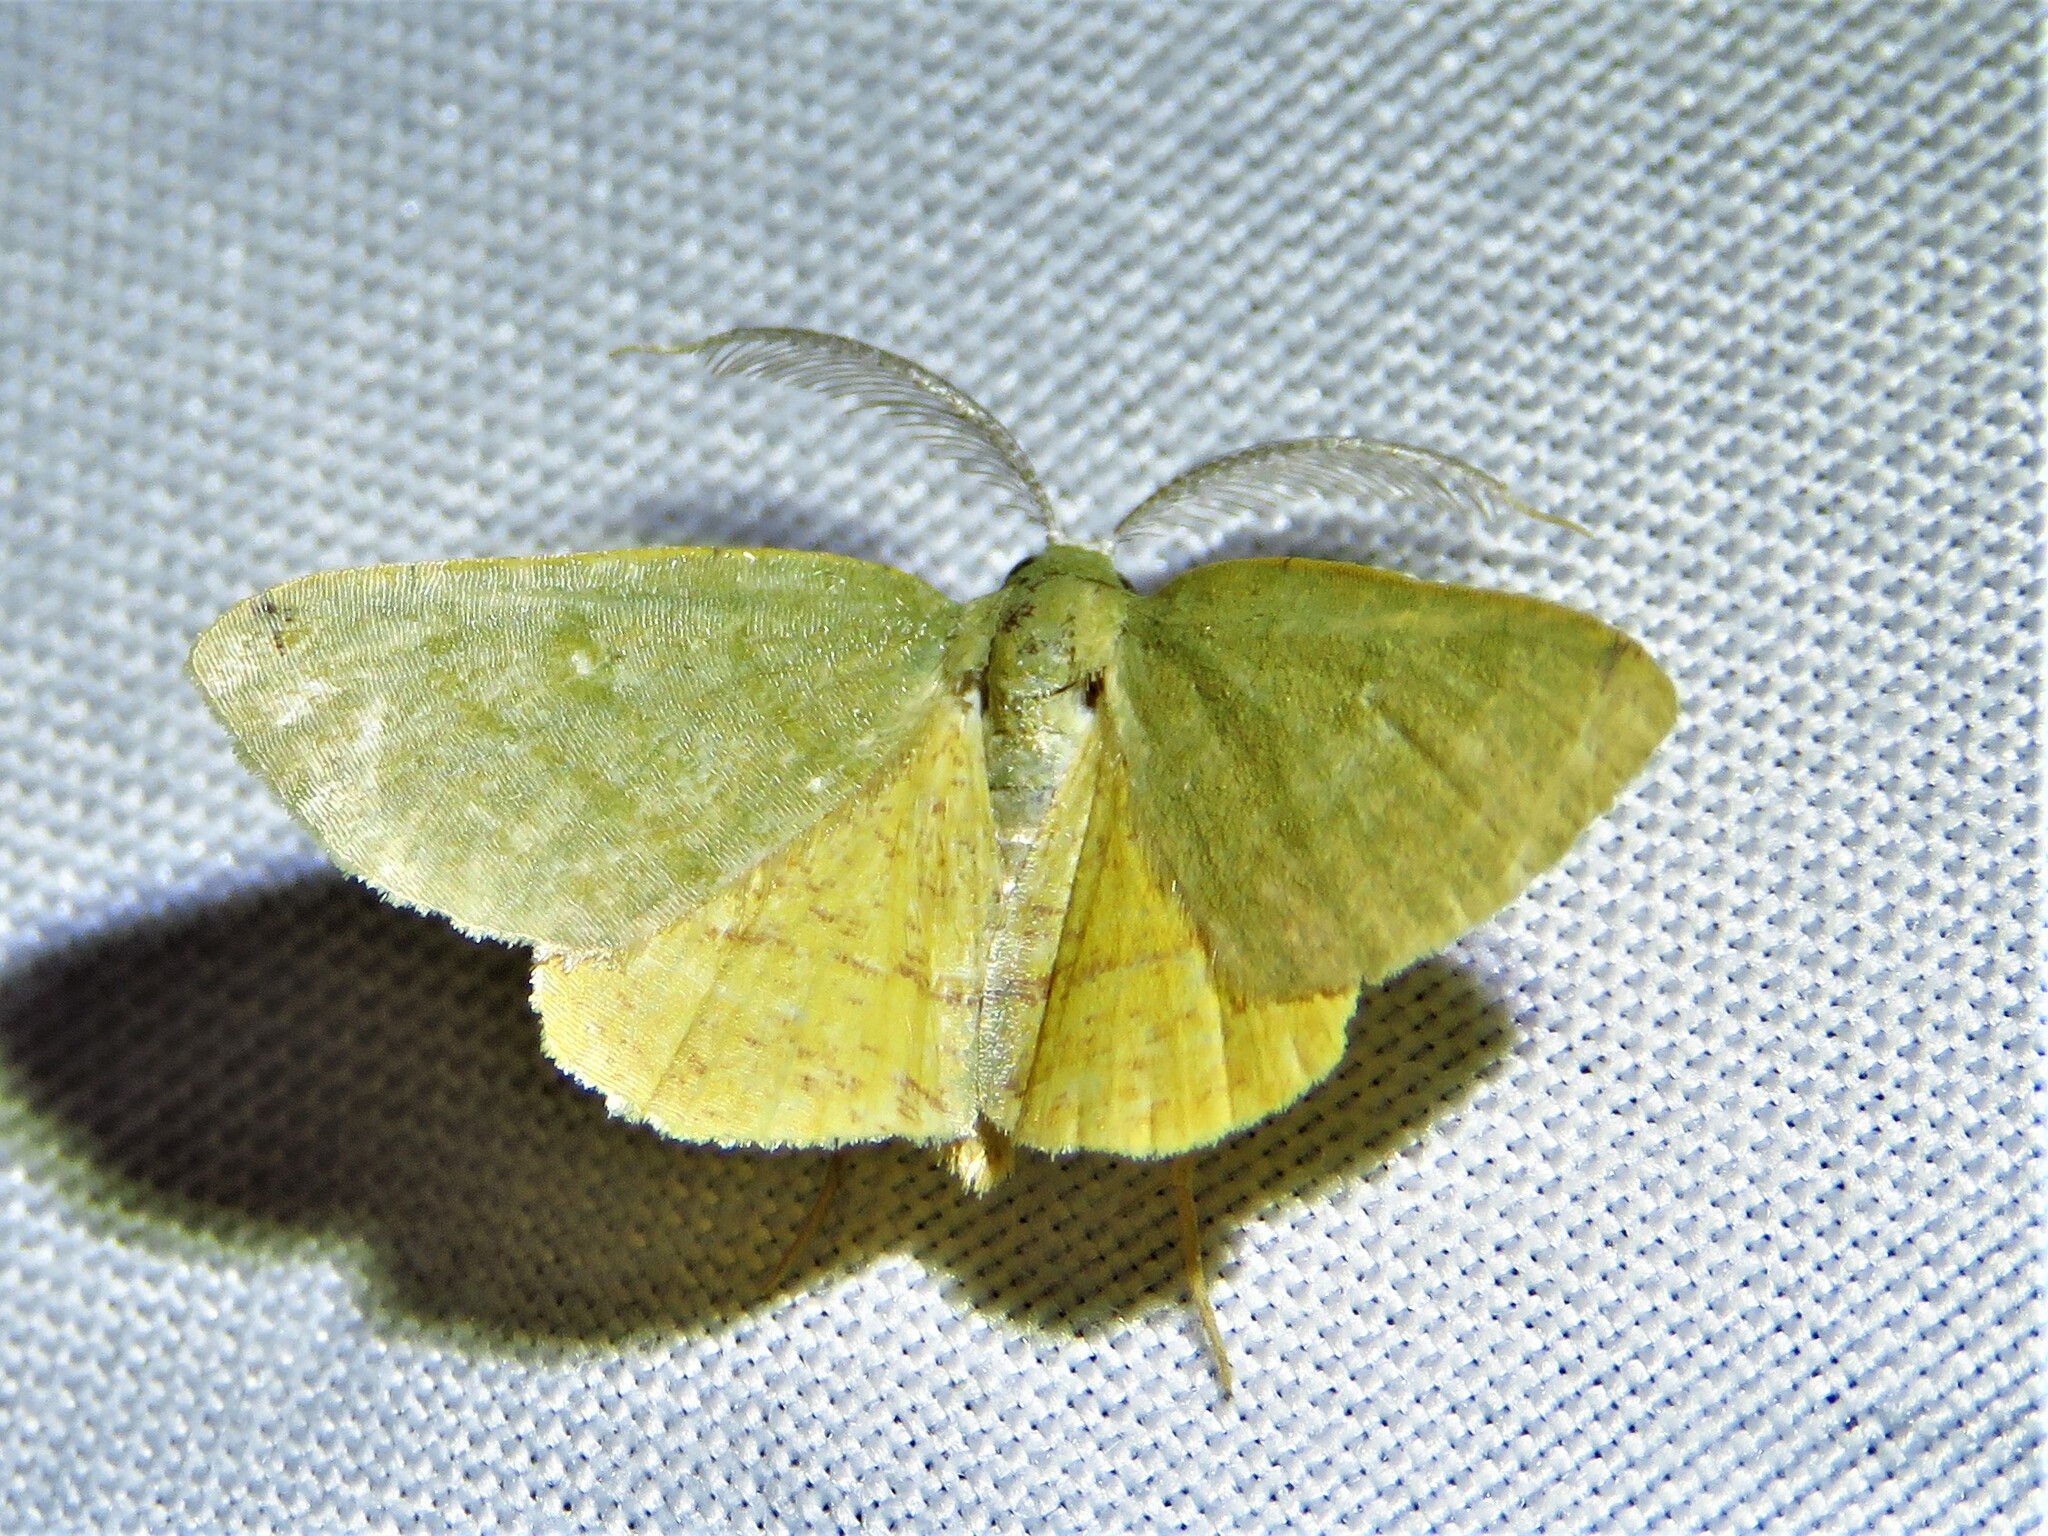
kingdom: Animalia
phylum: Arthropoda
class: Insecta
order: Lepidoptera
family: Geometridae
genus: Chloraspilates
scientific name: Chloraspilates bicoloraria
